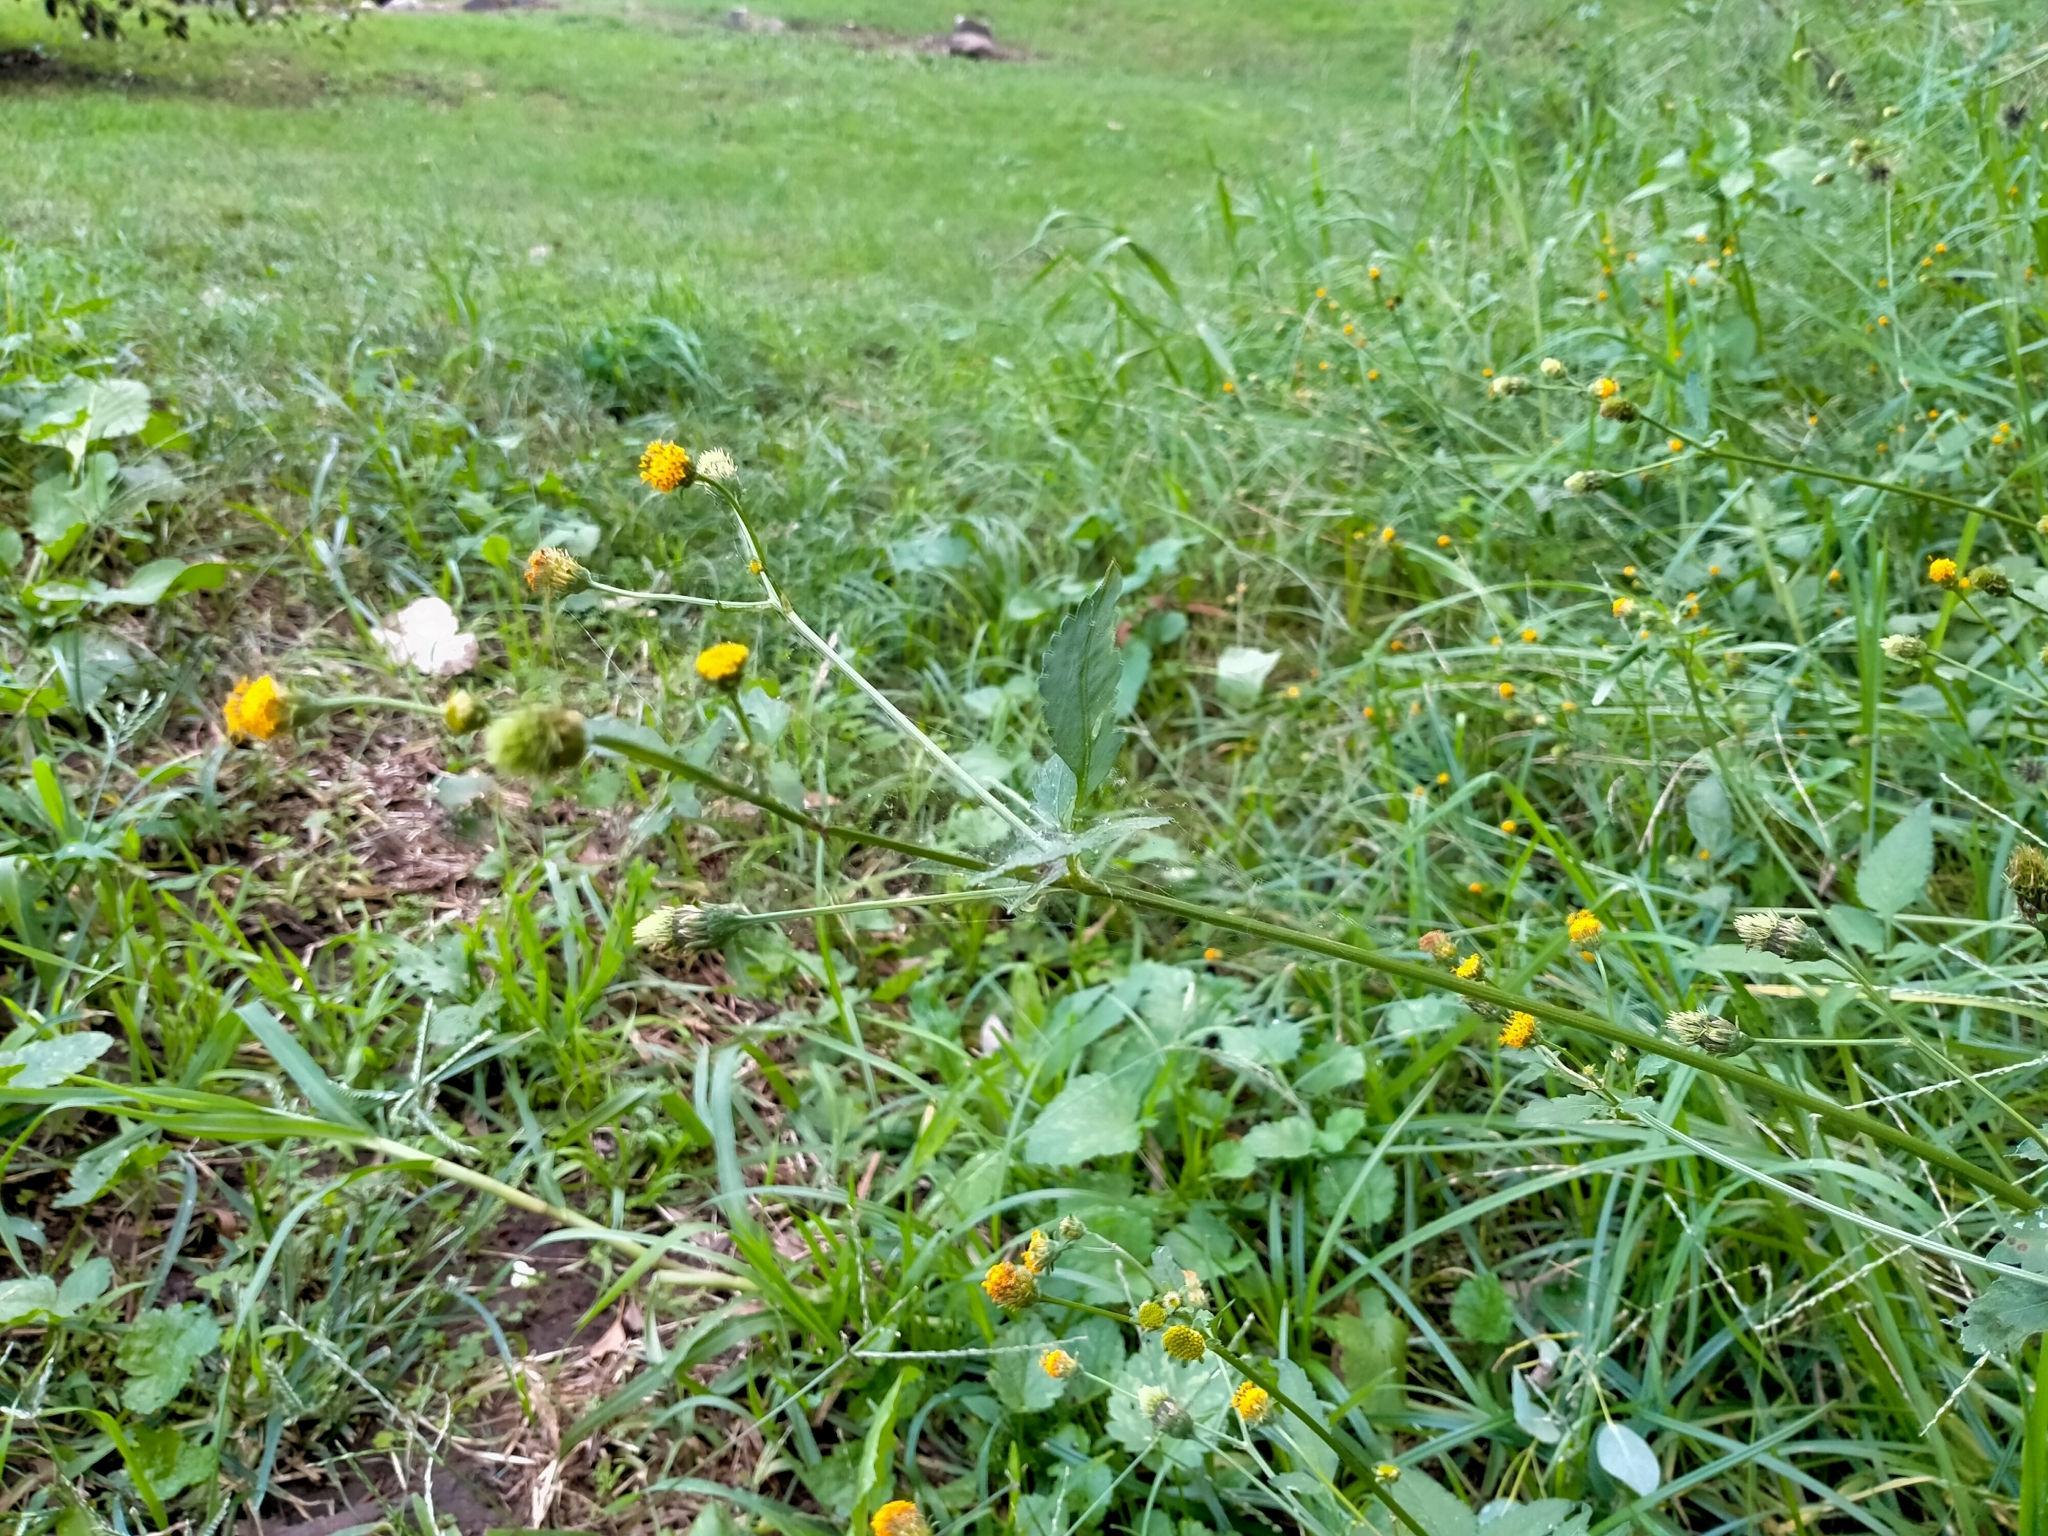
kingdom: Plantae
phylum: Tracheophyta
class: Magnoliopsida
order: Asterales
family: Asteraceae
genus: Bidens
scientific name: Bidens pilosa
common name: Black-jack
